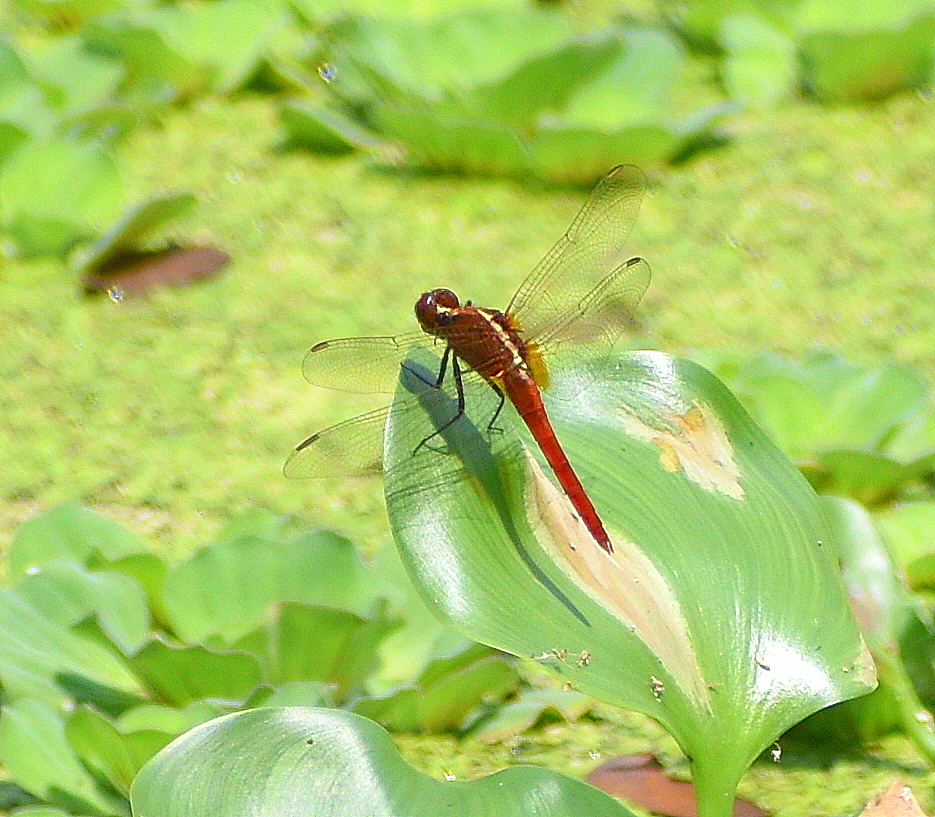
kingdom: Animalia
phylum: Arthropoda
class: Insecta
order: Odonata
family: Libellulidae
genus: Rhodothemis
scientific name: Rhodothemis rufa
